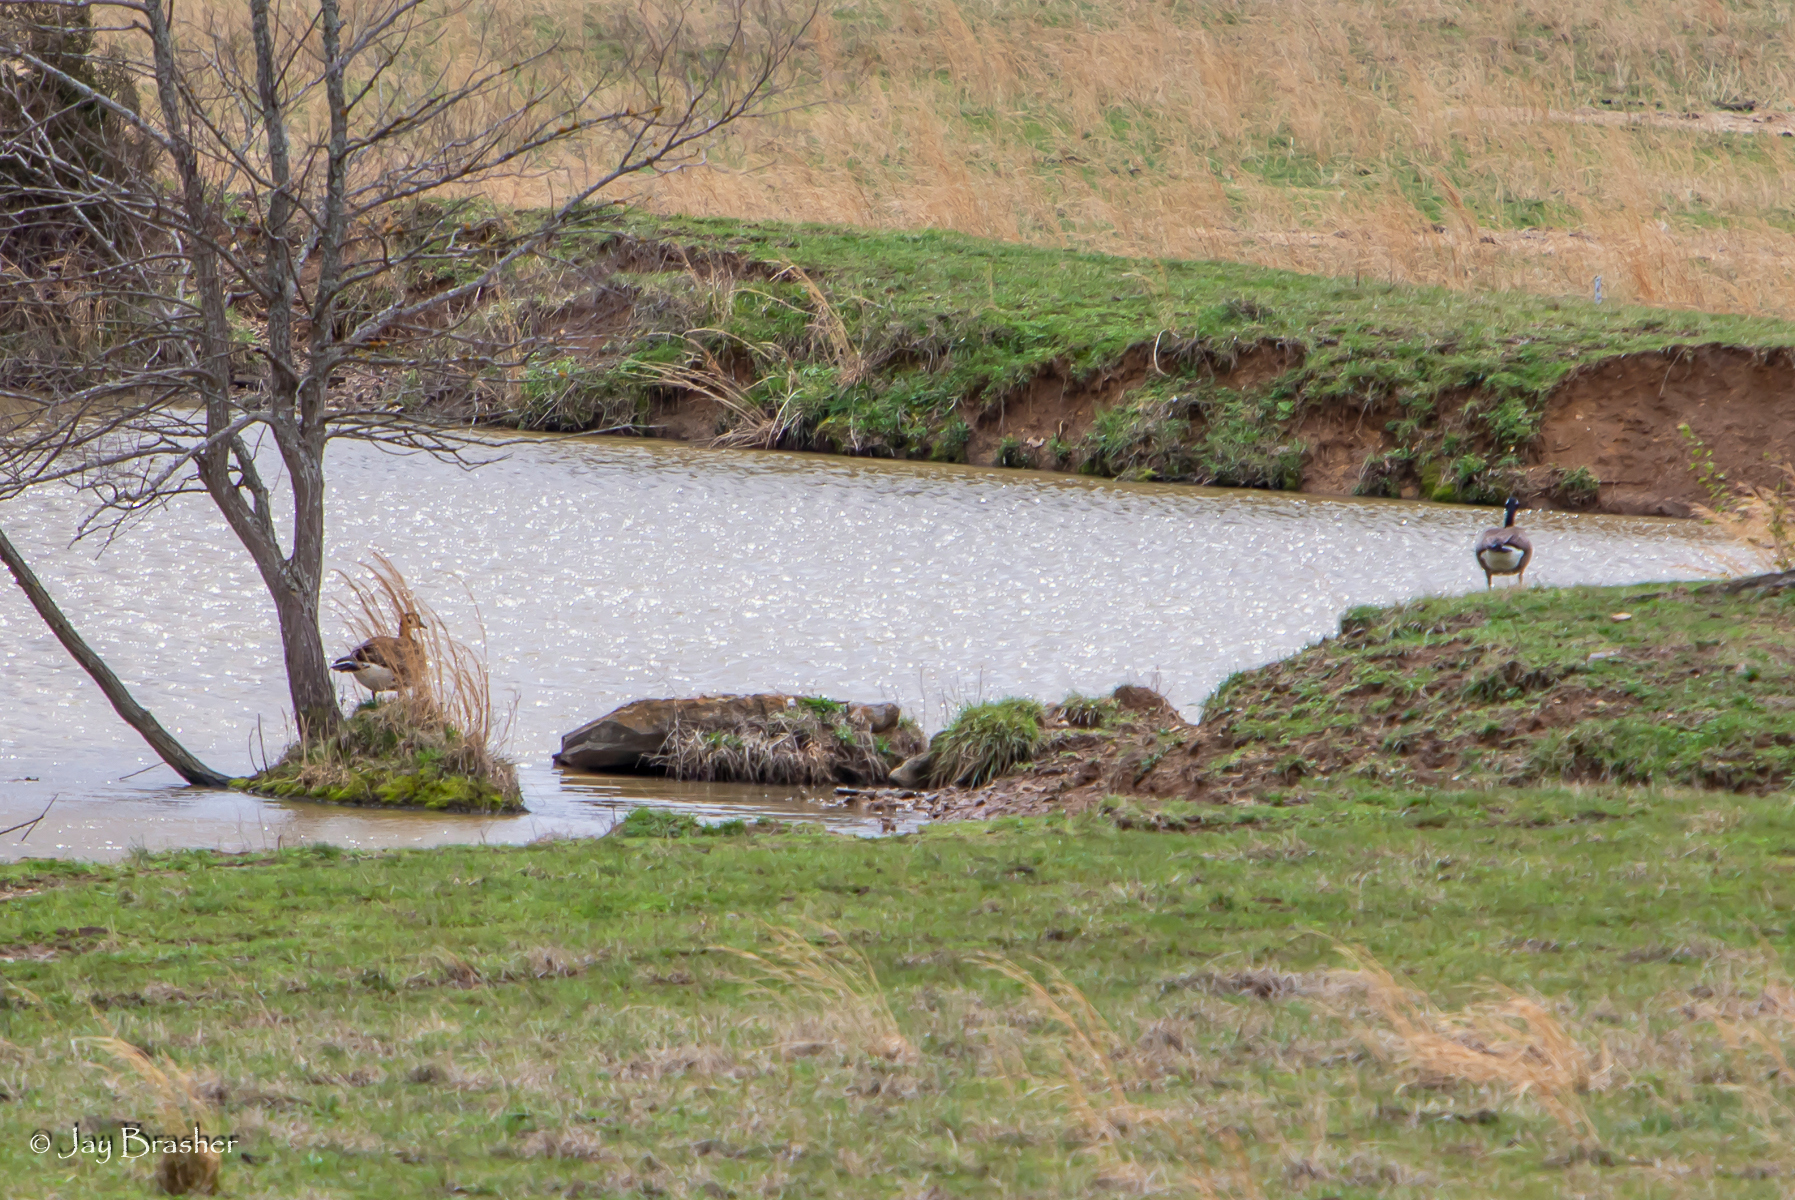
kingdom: Animalia
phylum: Chordata
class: Aves
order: Anseriformes
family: Anatidae
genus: Branta
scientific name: Branta canadensis
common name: Canada goose
